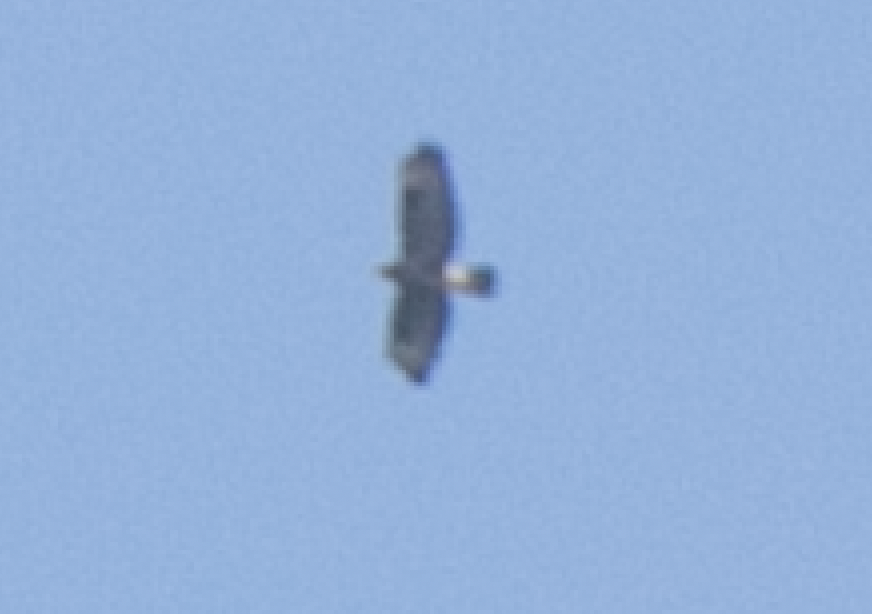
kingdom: Animalia
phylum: Chordata
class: Aves
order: Accipitriformes
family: Accipitridae
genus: Buteo
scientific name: Buteo buteo
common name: Common buzzard
